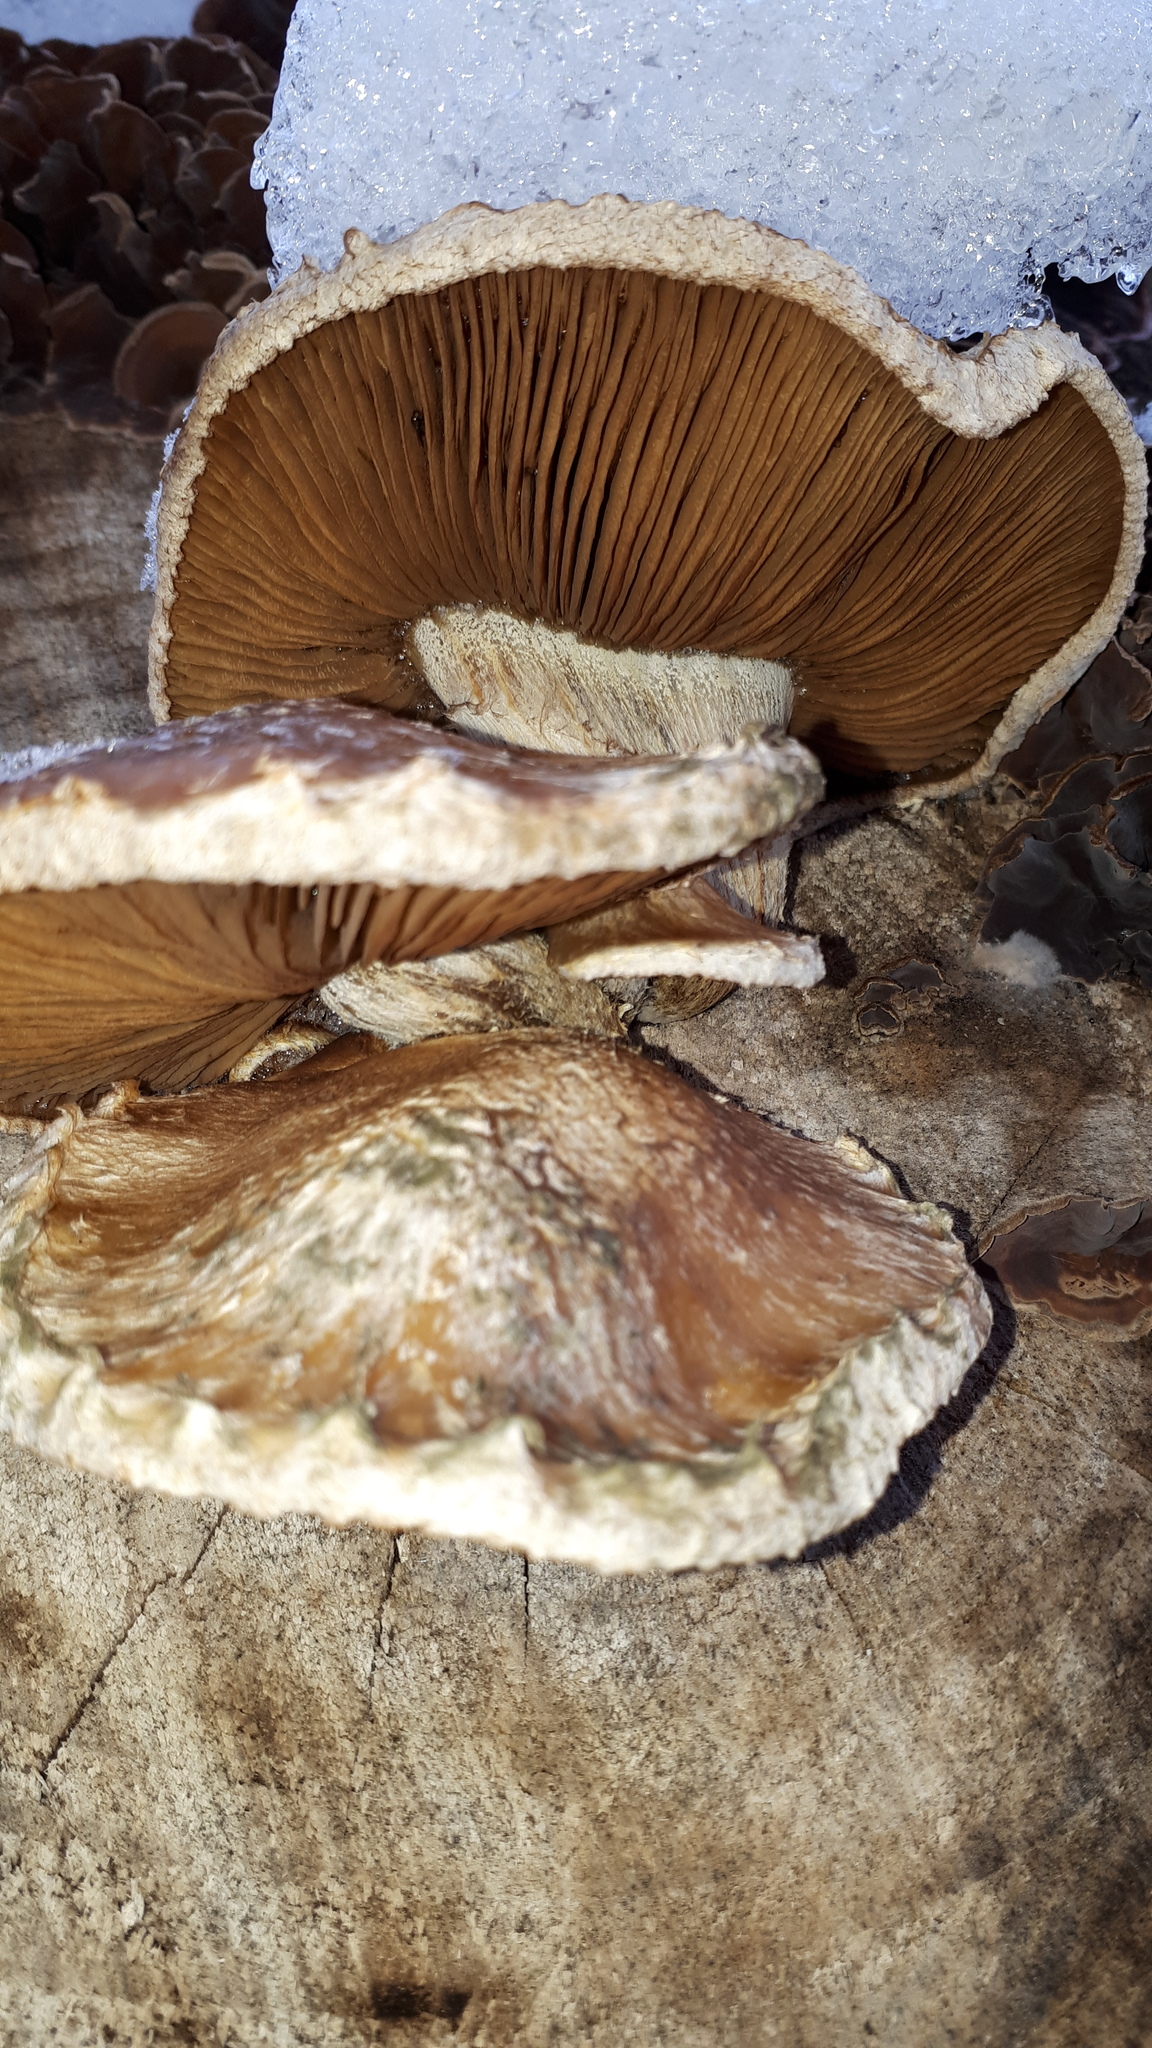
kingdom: Fungi
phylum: Basidiomycota
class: Agaricomycetes
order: Agaricales
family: Strophariaceae
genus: Pholiota
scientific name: Pholiota populnea
